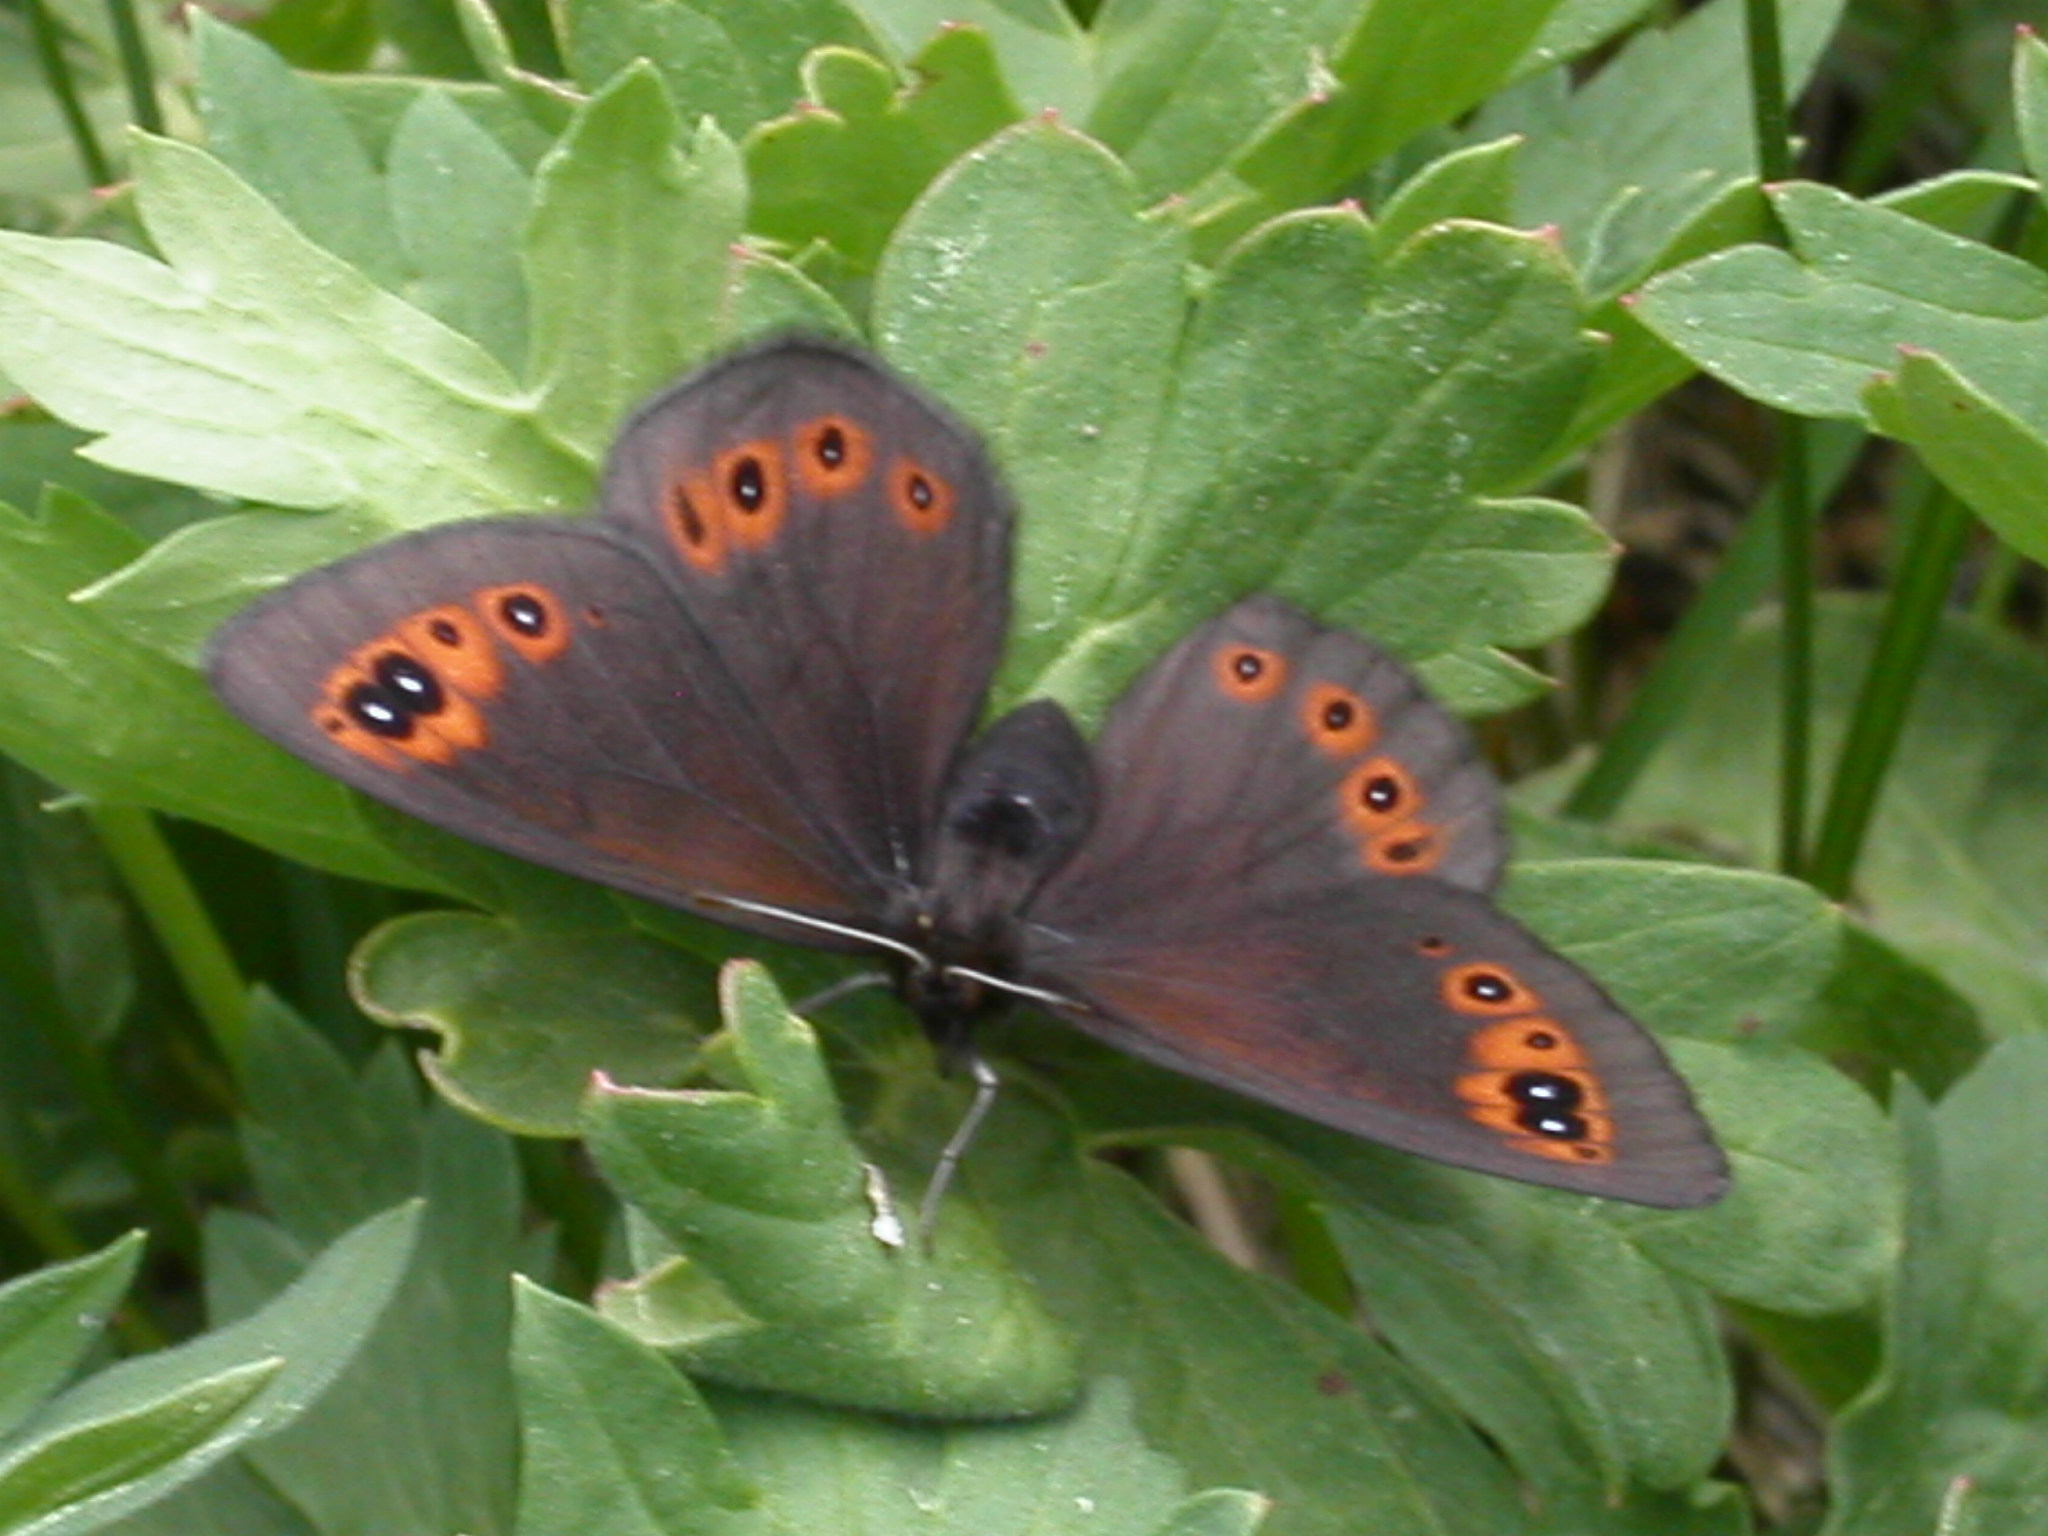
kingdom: Animalia
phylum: Arthropoda
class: Insecta
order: Lepidoptera
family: Nymphalidae
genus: Erebia
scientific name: Erebia epipsodea
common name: Common alpine
